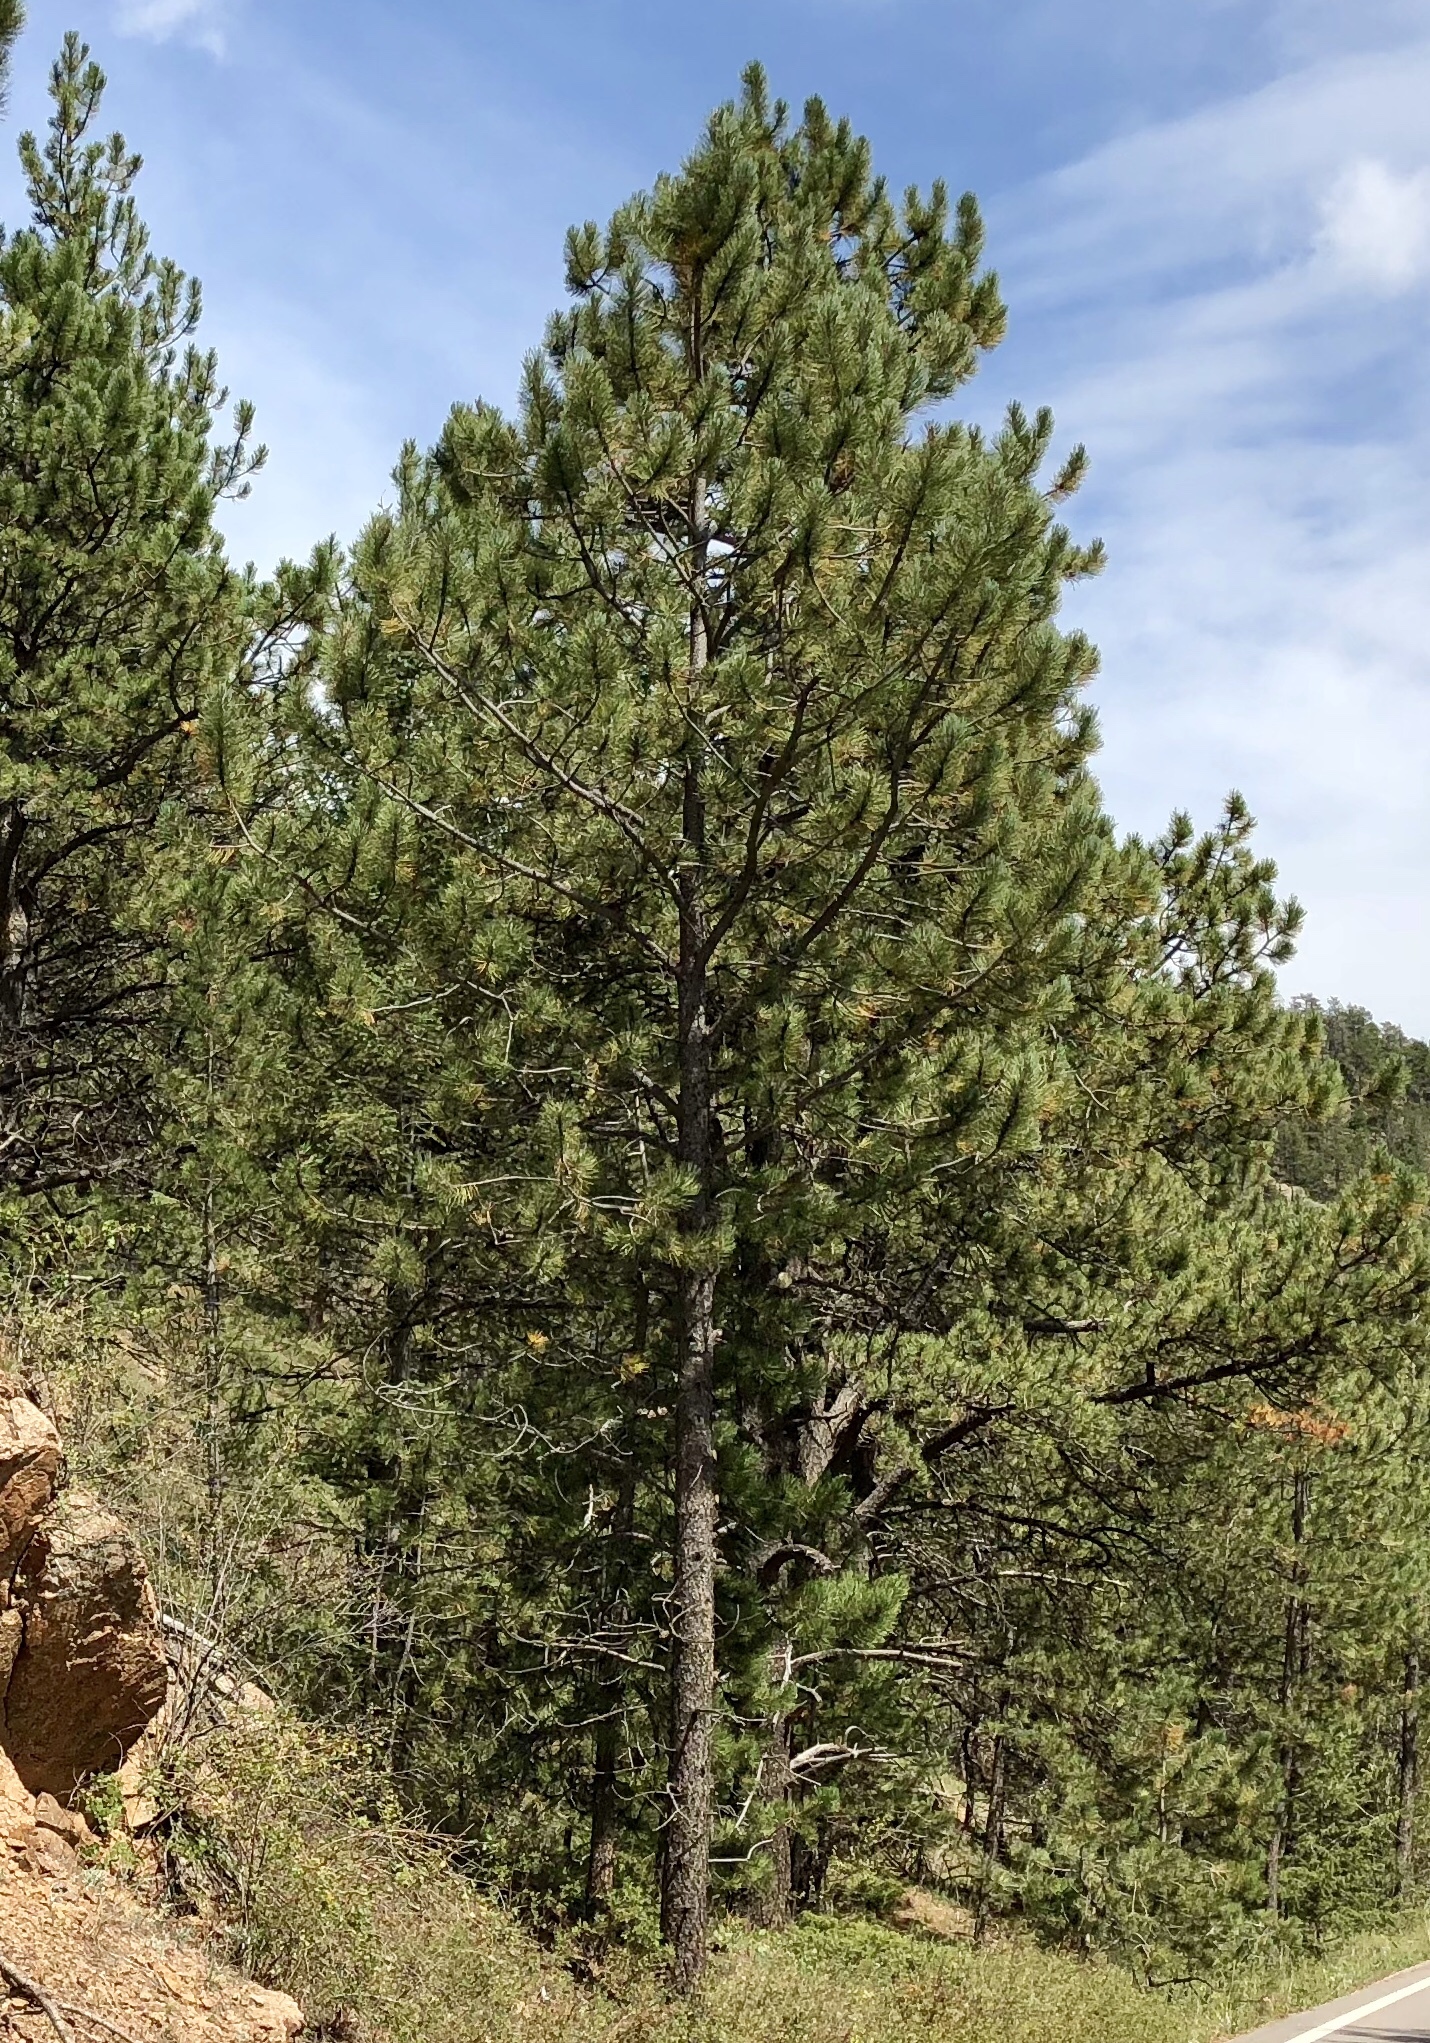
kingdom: Plantae
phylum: Tracheophyta
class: Pinopsida
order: Pinales
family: Pinaceae
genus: Pinus
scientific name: Pinus ponderosa
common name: Western yellow-pine
